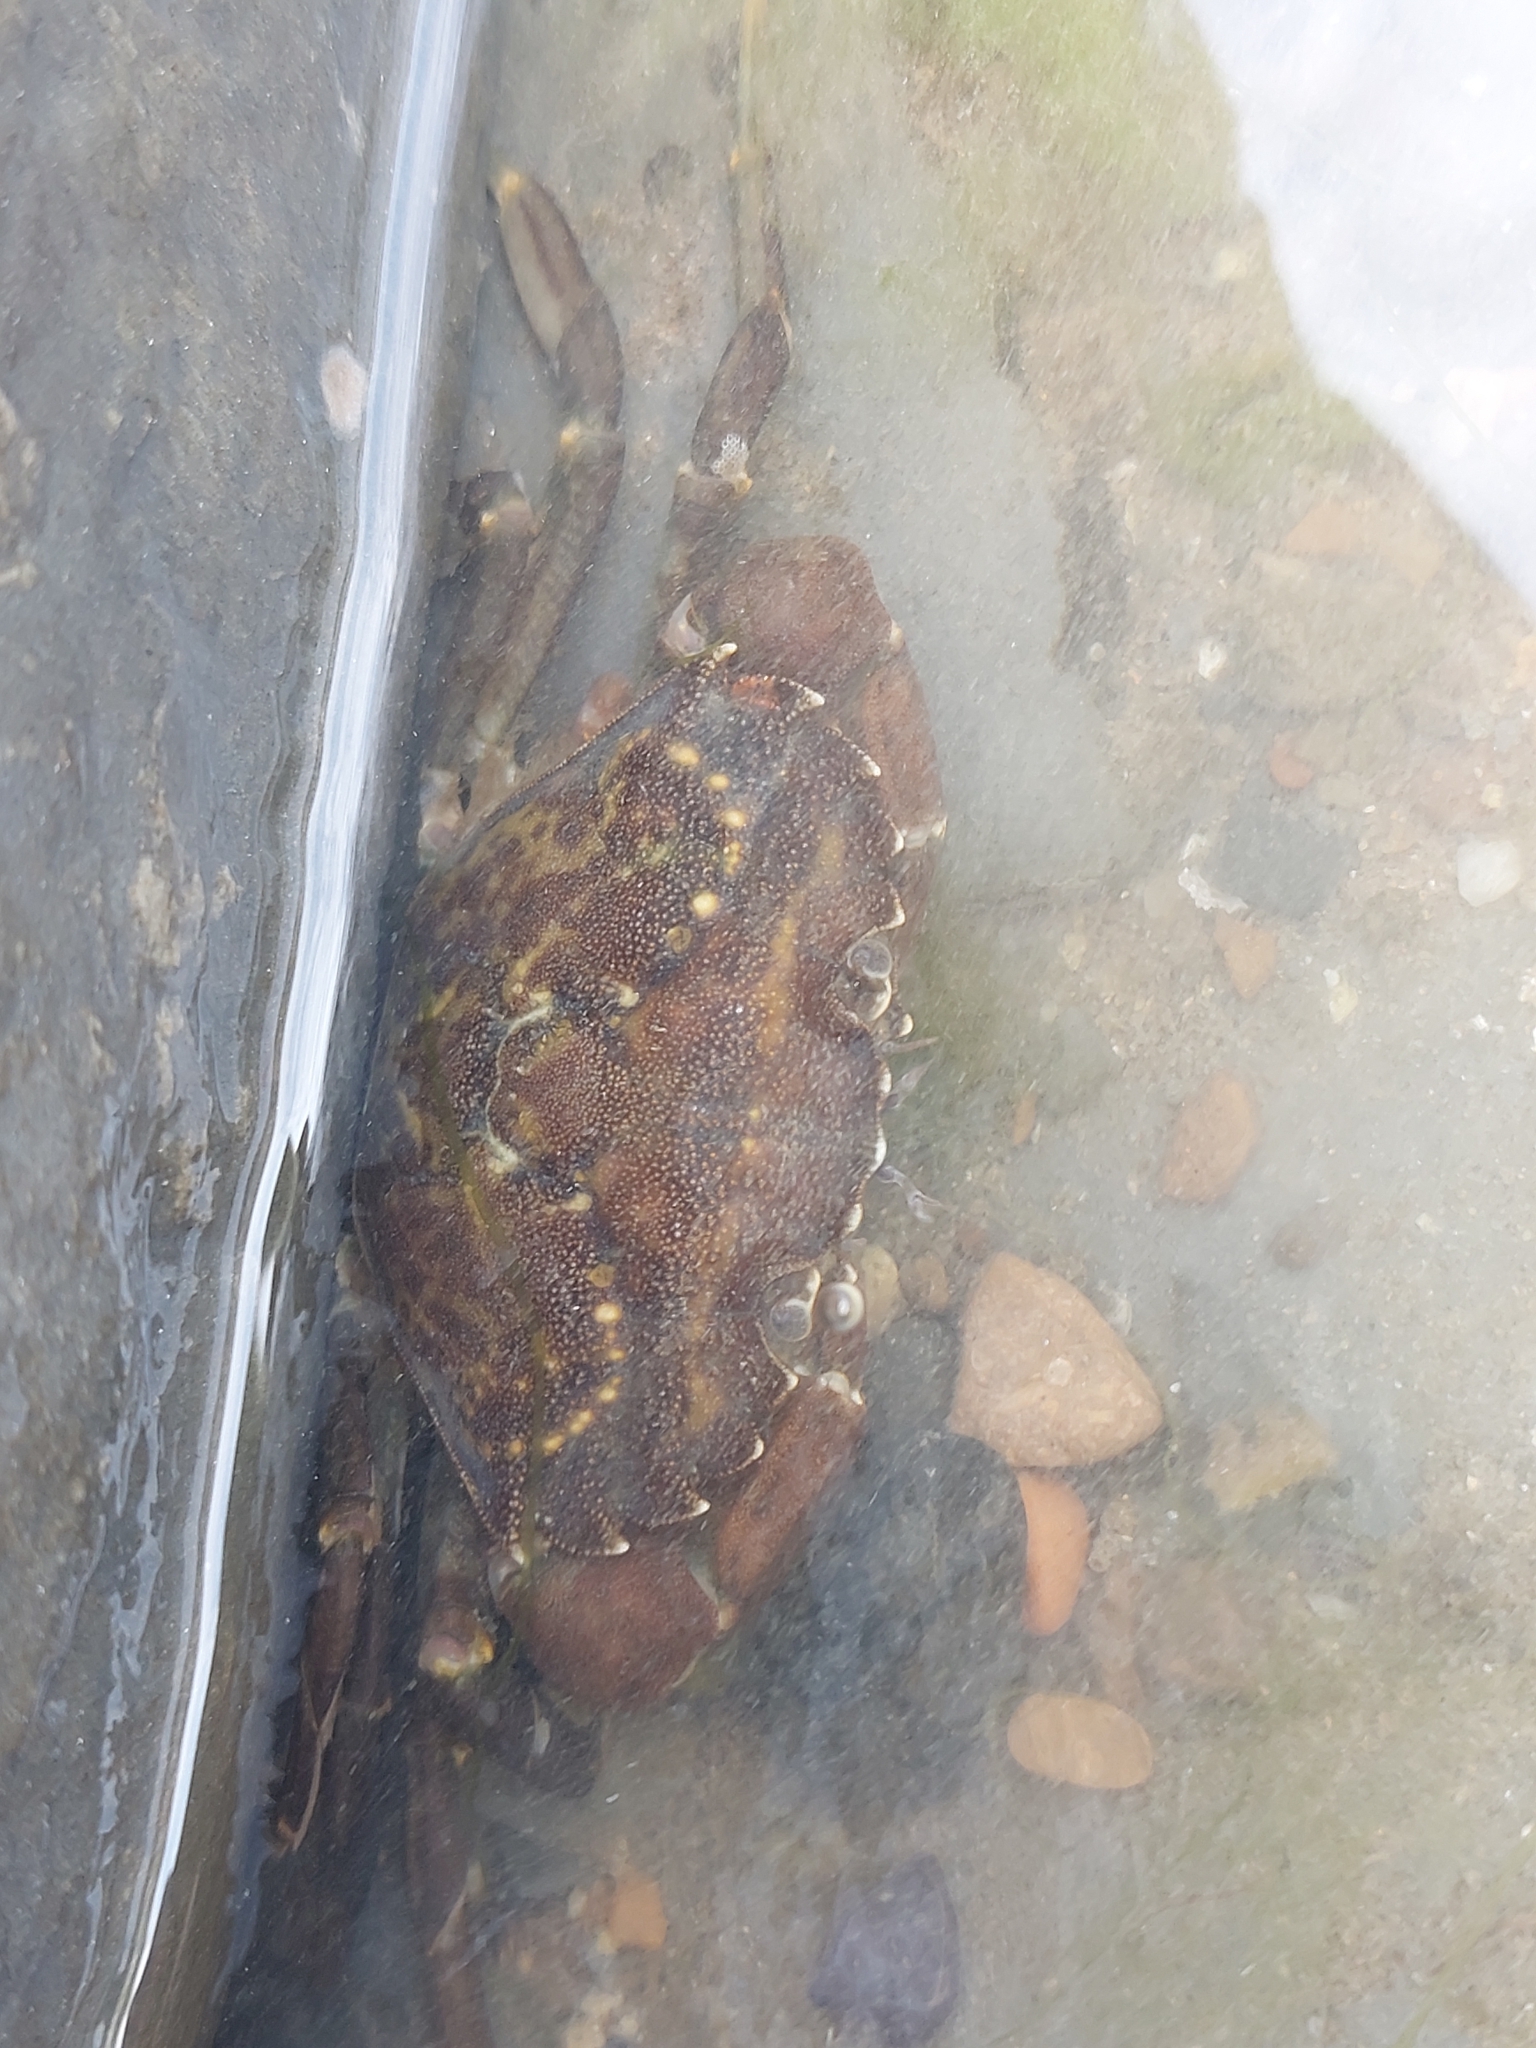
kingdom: Animalia
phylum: Arthropoda
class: Malacostraca
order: Decapoda
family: Carcinidae
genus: Carcinus
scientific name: Carcinus maenas
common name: European green crab
